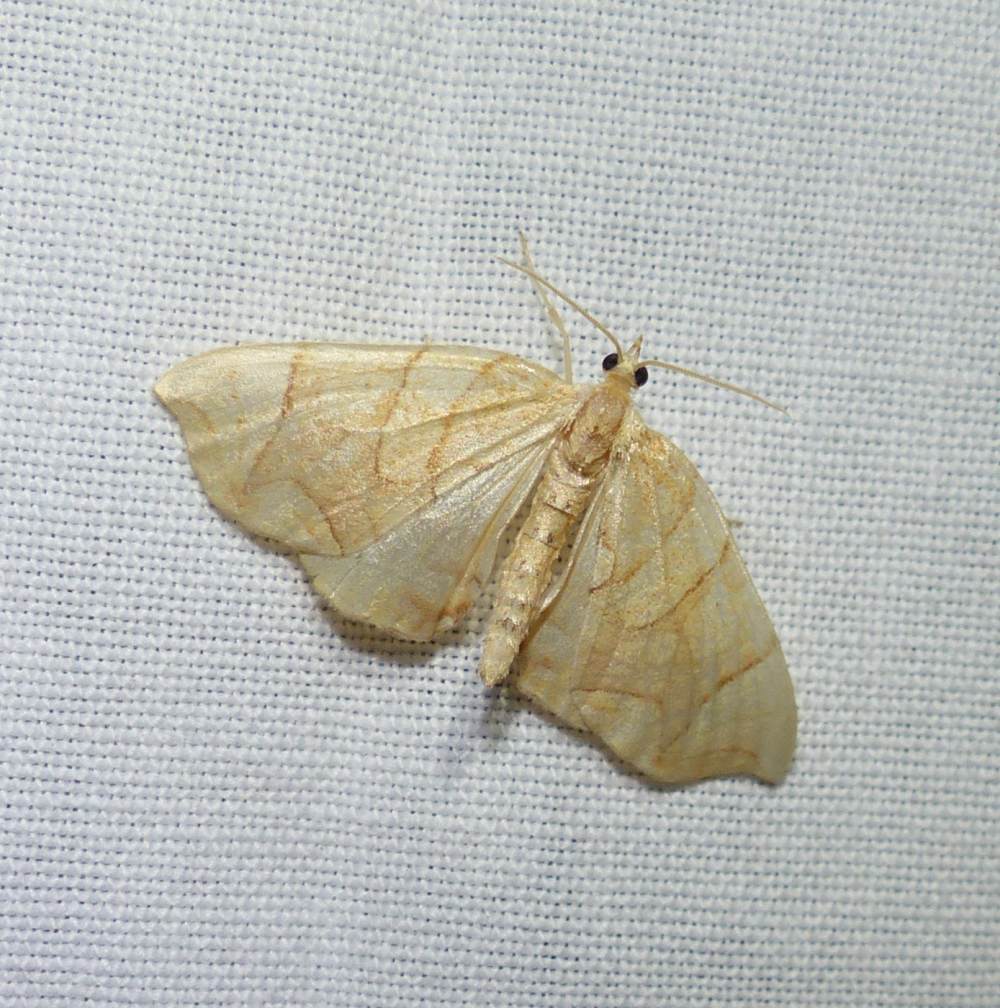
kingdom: Animalia
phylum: Arthropoda
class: Insecta
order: Lepidoptera
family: Geometridae
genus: Eulithis
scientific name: Eulithis
